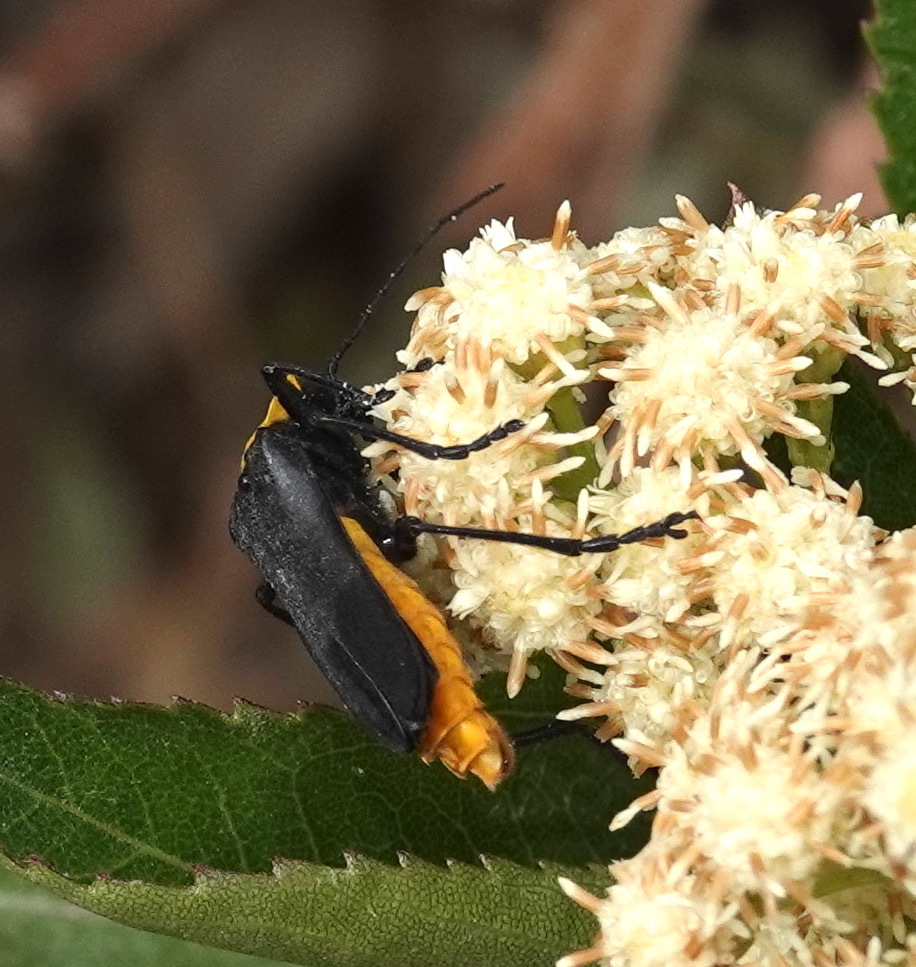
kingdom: Animalia
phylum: Arthropoda
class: Insecta
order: Coleoptera
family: Cantharidae
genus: Chauliognathus
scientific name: Chauliognathus
